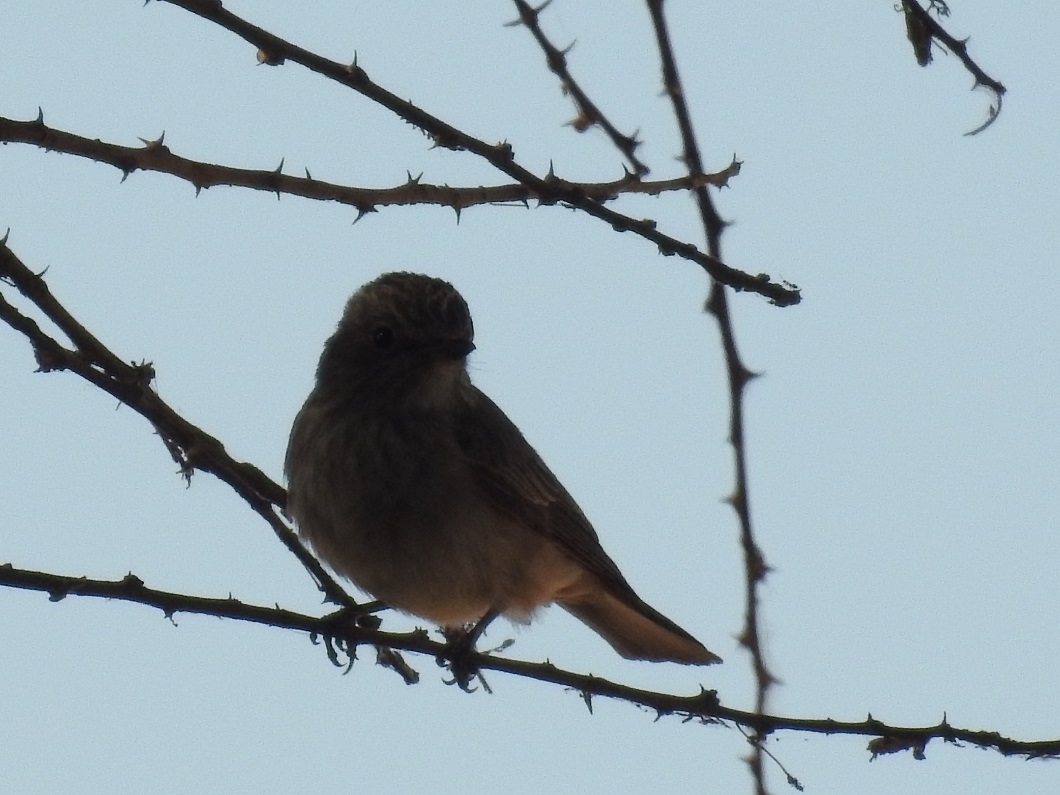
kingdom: Animalia
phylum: Chordata
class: Aves
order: Passeriformes
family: Muscicapidae
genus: Muscicapa
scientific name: Muscicapa striata
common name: Spotted flycatcher
